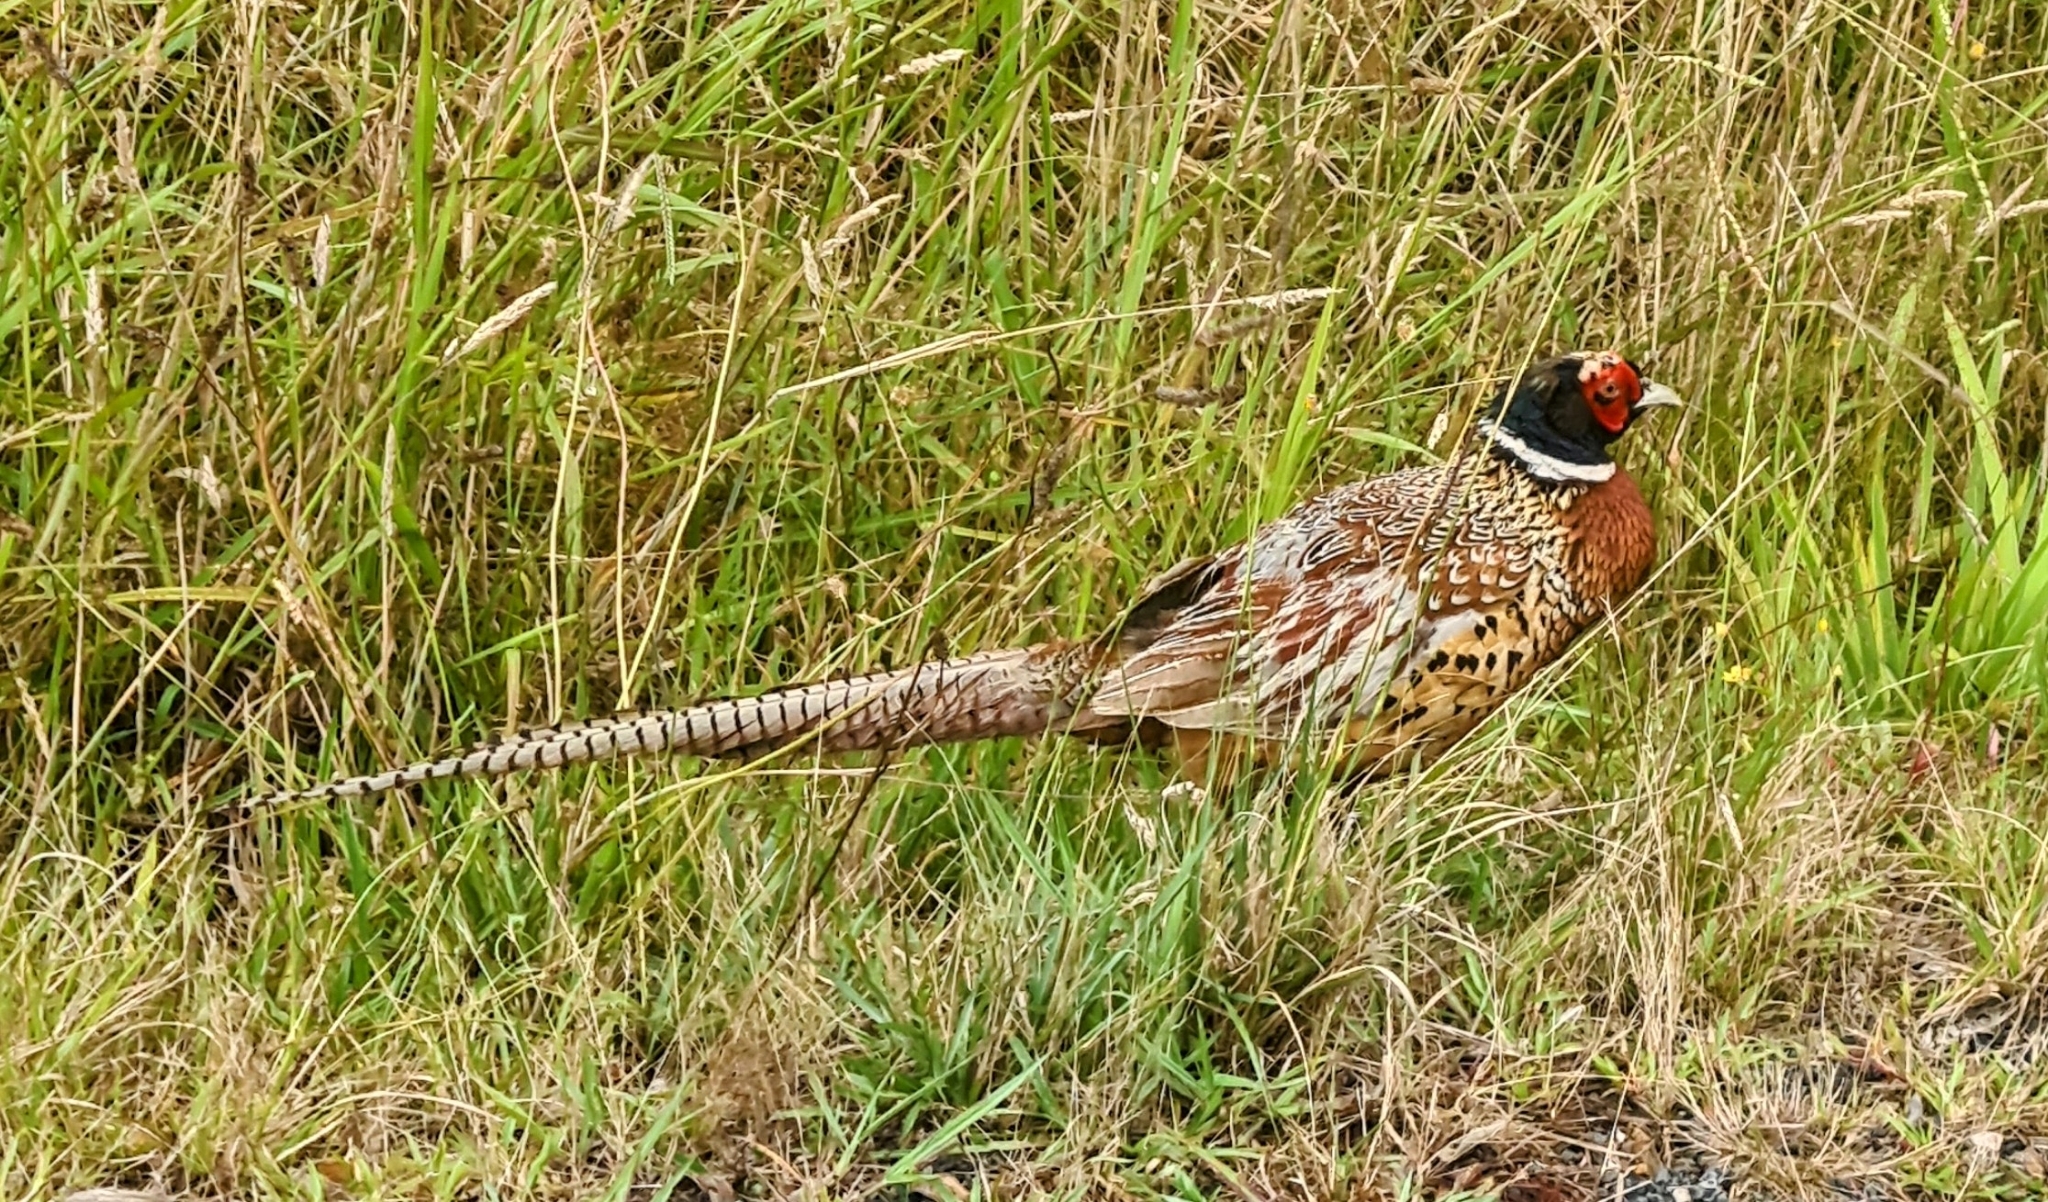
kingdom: Animalia
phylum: Chordata
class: Aves
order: Galliformes
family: Phasianidae
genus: Phasianus
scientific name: Phasianus colchicus
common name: Common pheasant
